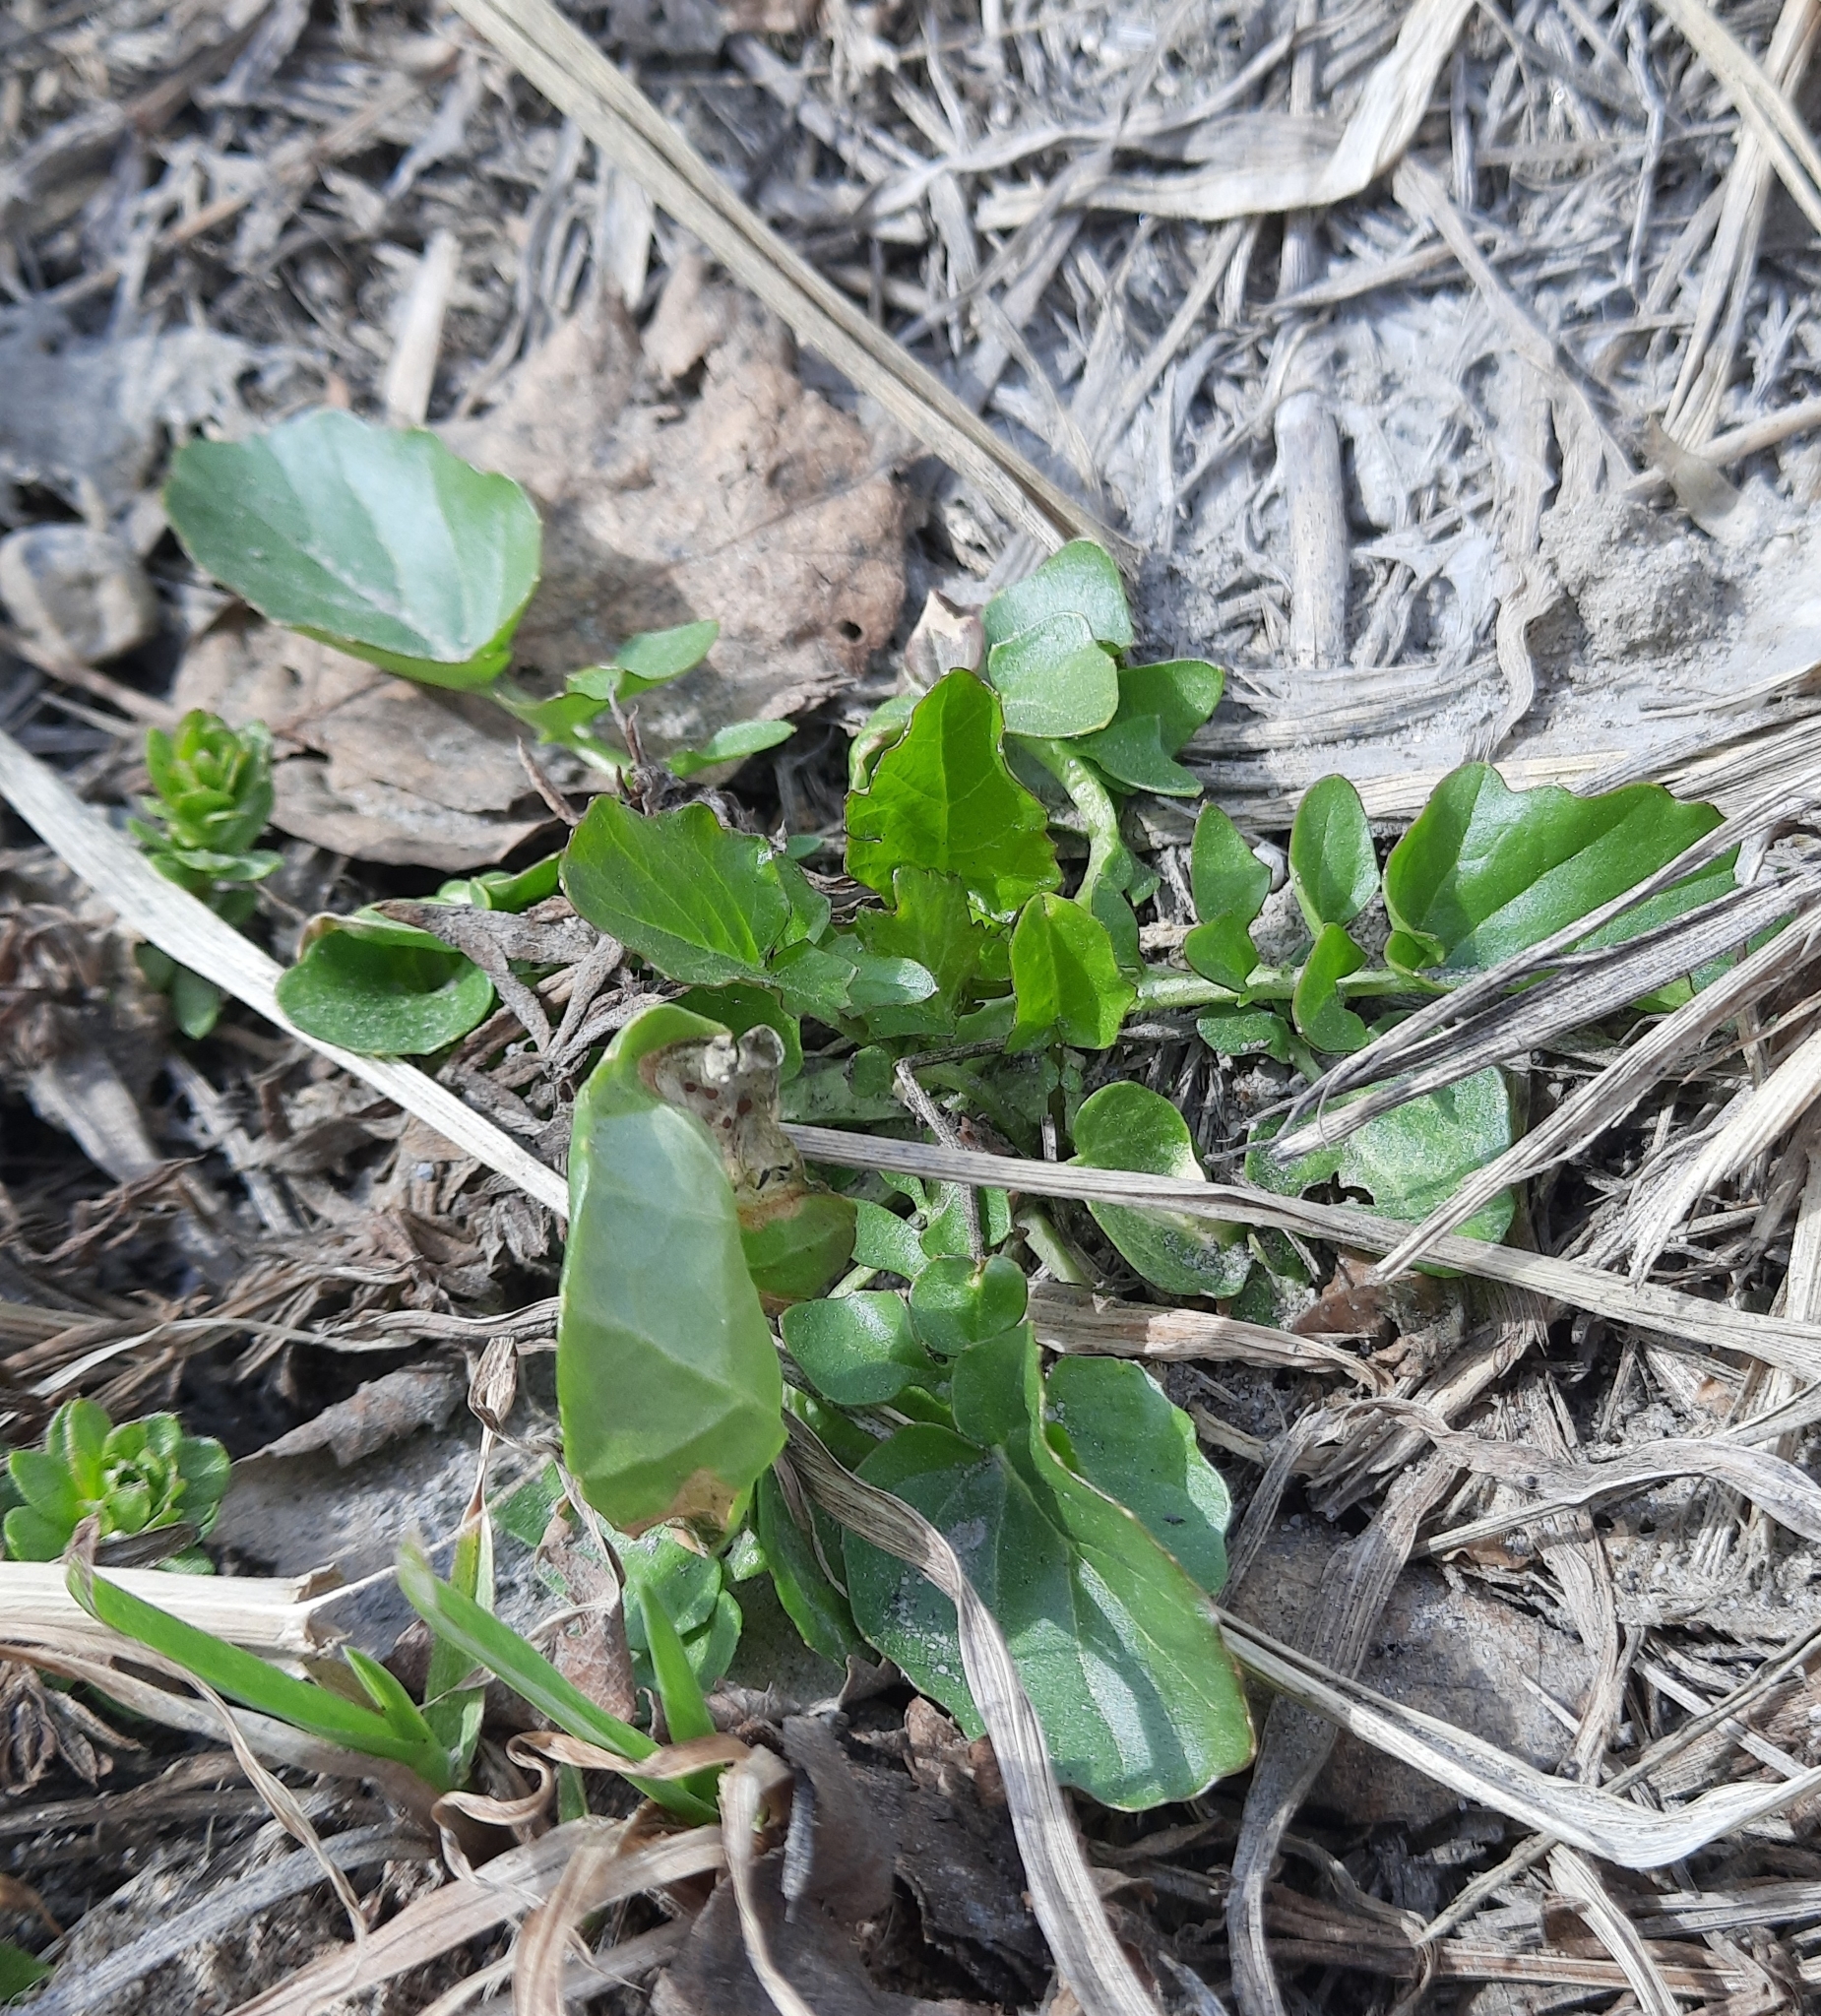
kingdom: Plantae
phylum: Tracheophyta
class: Magnoliopsida
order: Brassicales
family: Brassicaceae
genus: Barbarea
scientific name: Barbarea vulgaris
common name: Cressy-greens
